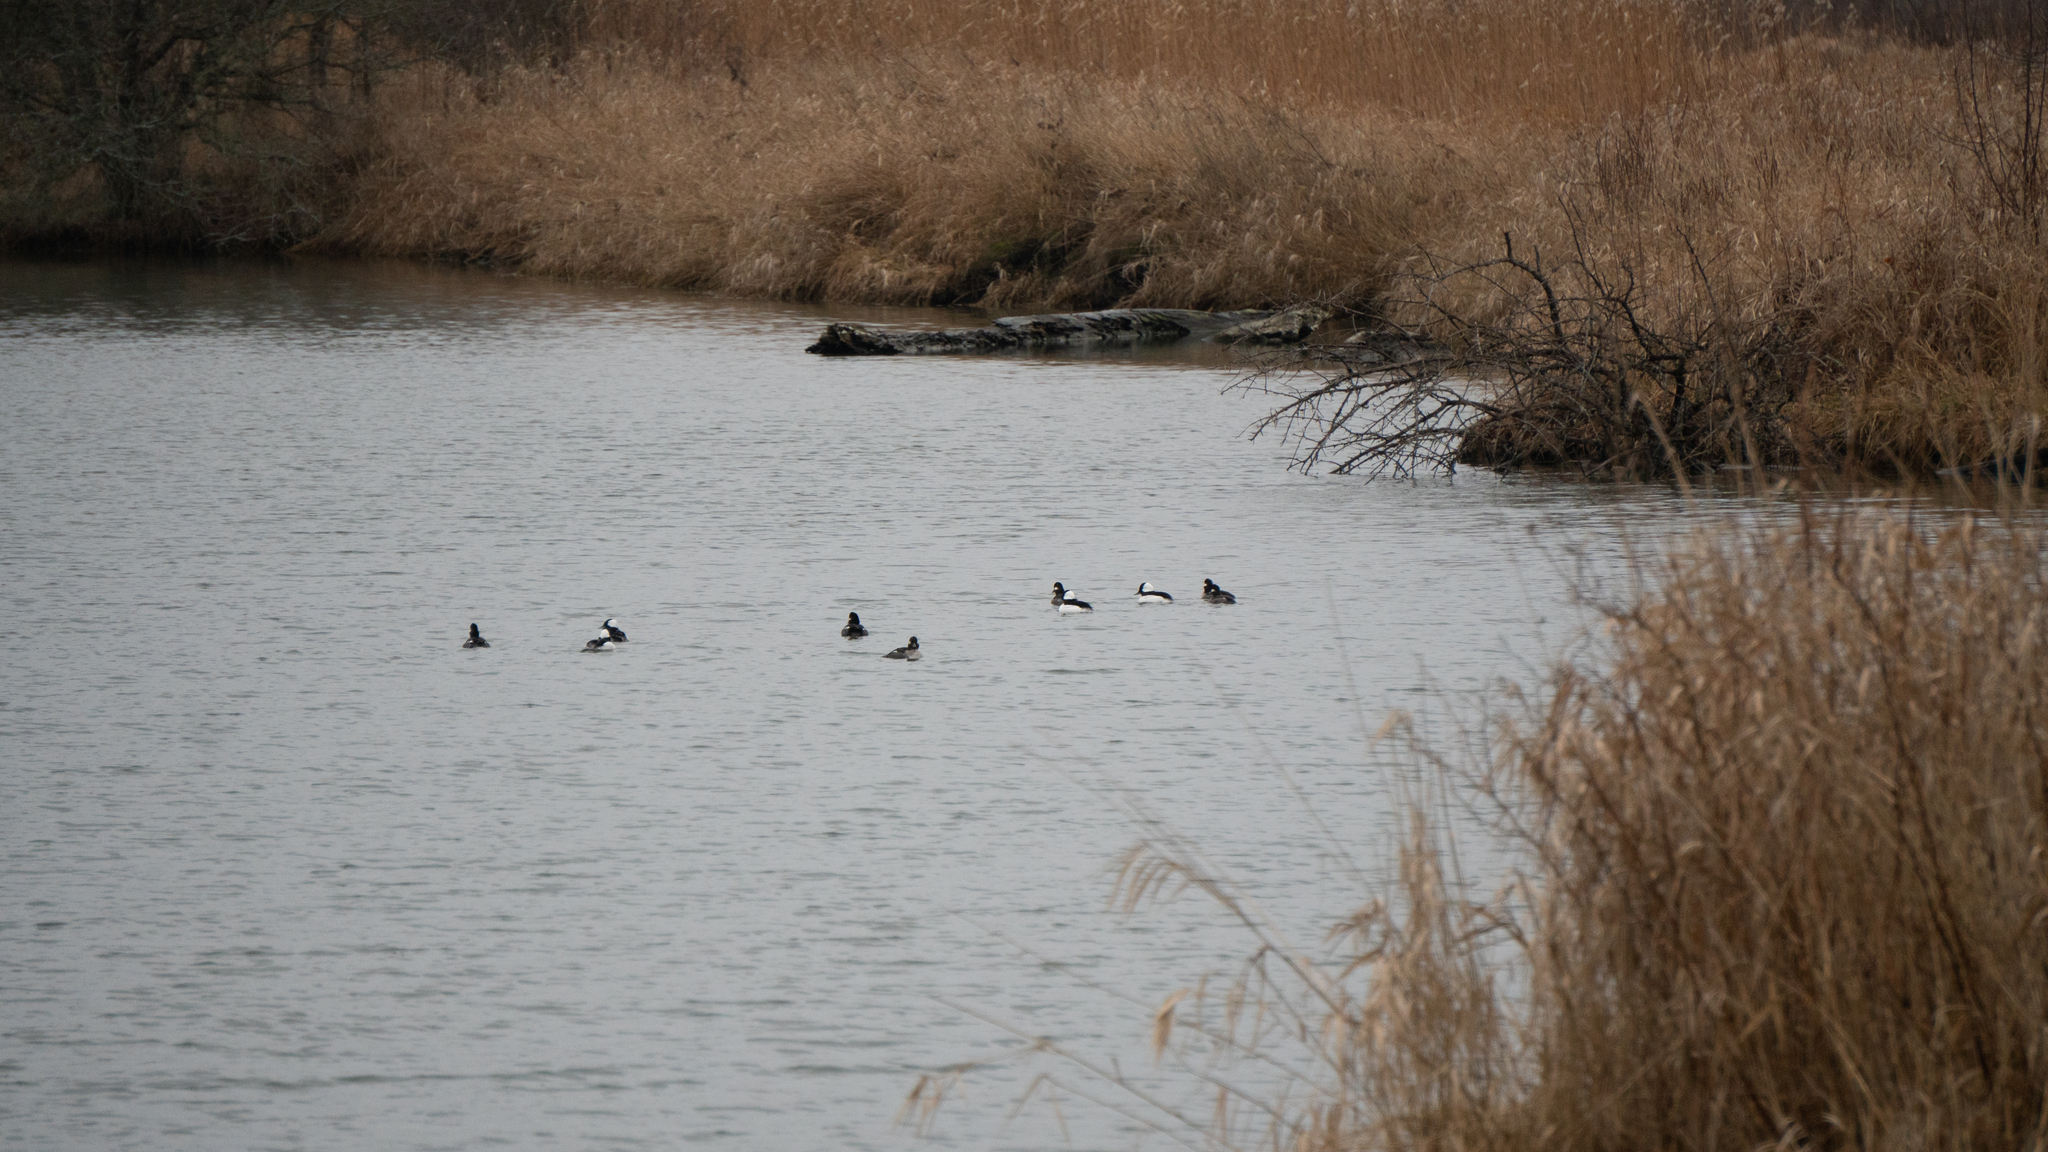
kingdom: Animalia
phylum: Chordata
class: Aves
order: Anseriformes
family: Anatidae
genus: Bucephala
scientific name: Bucephala albeola
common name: Bufflehead
